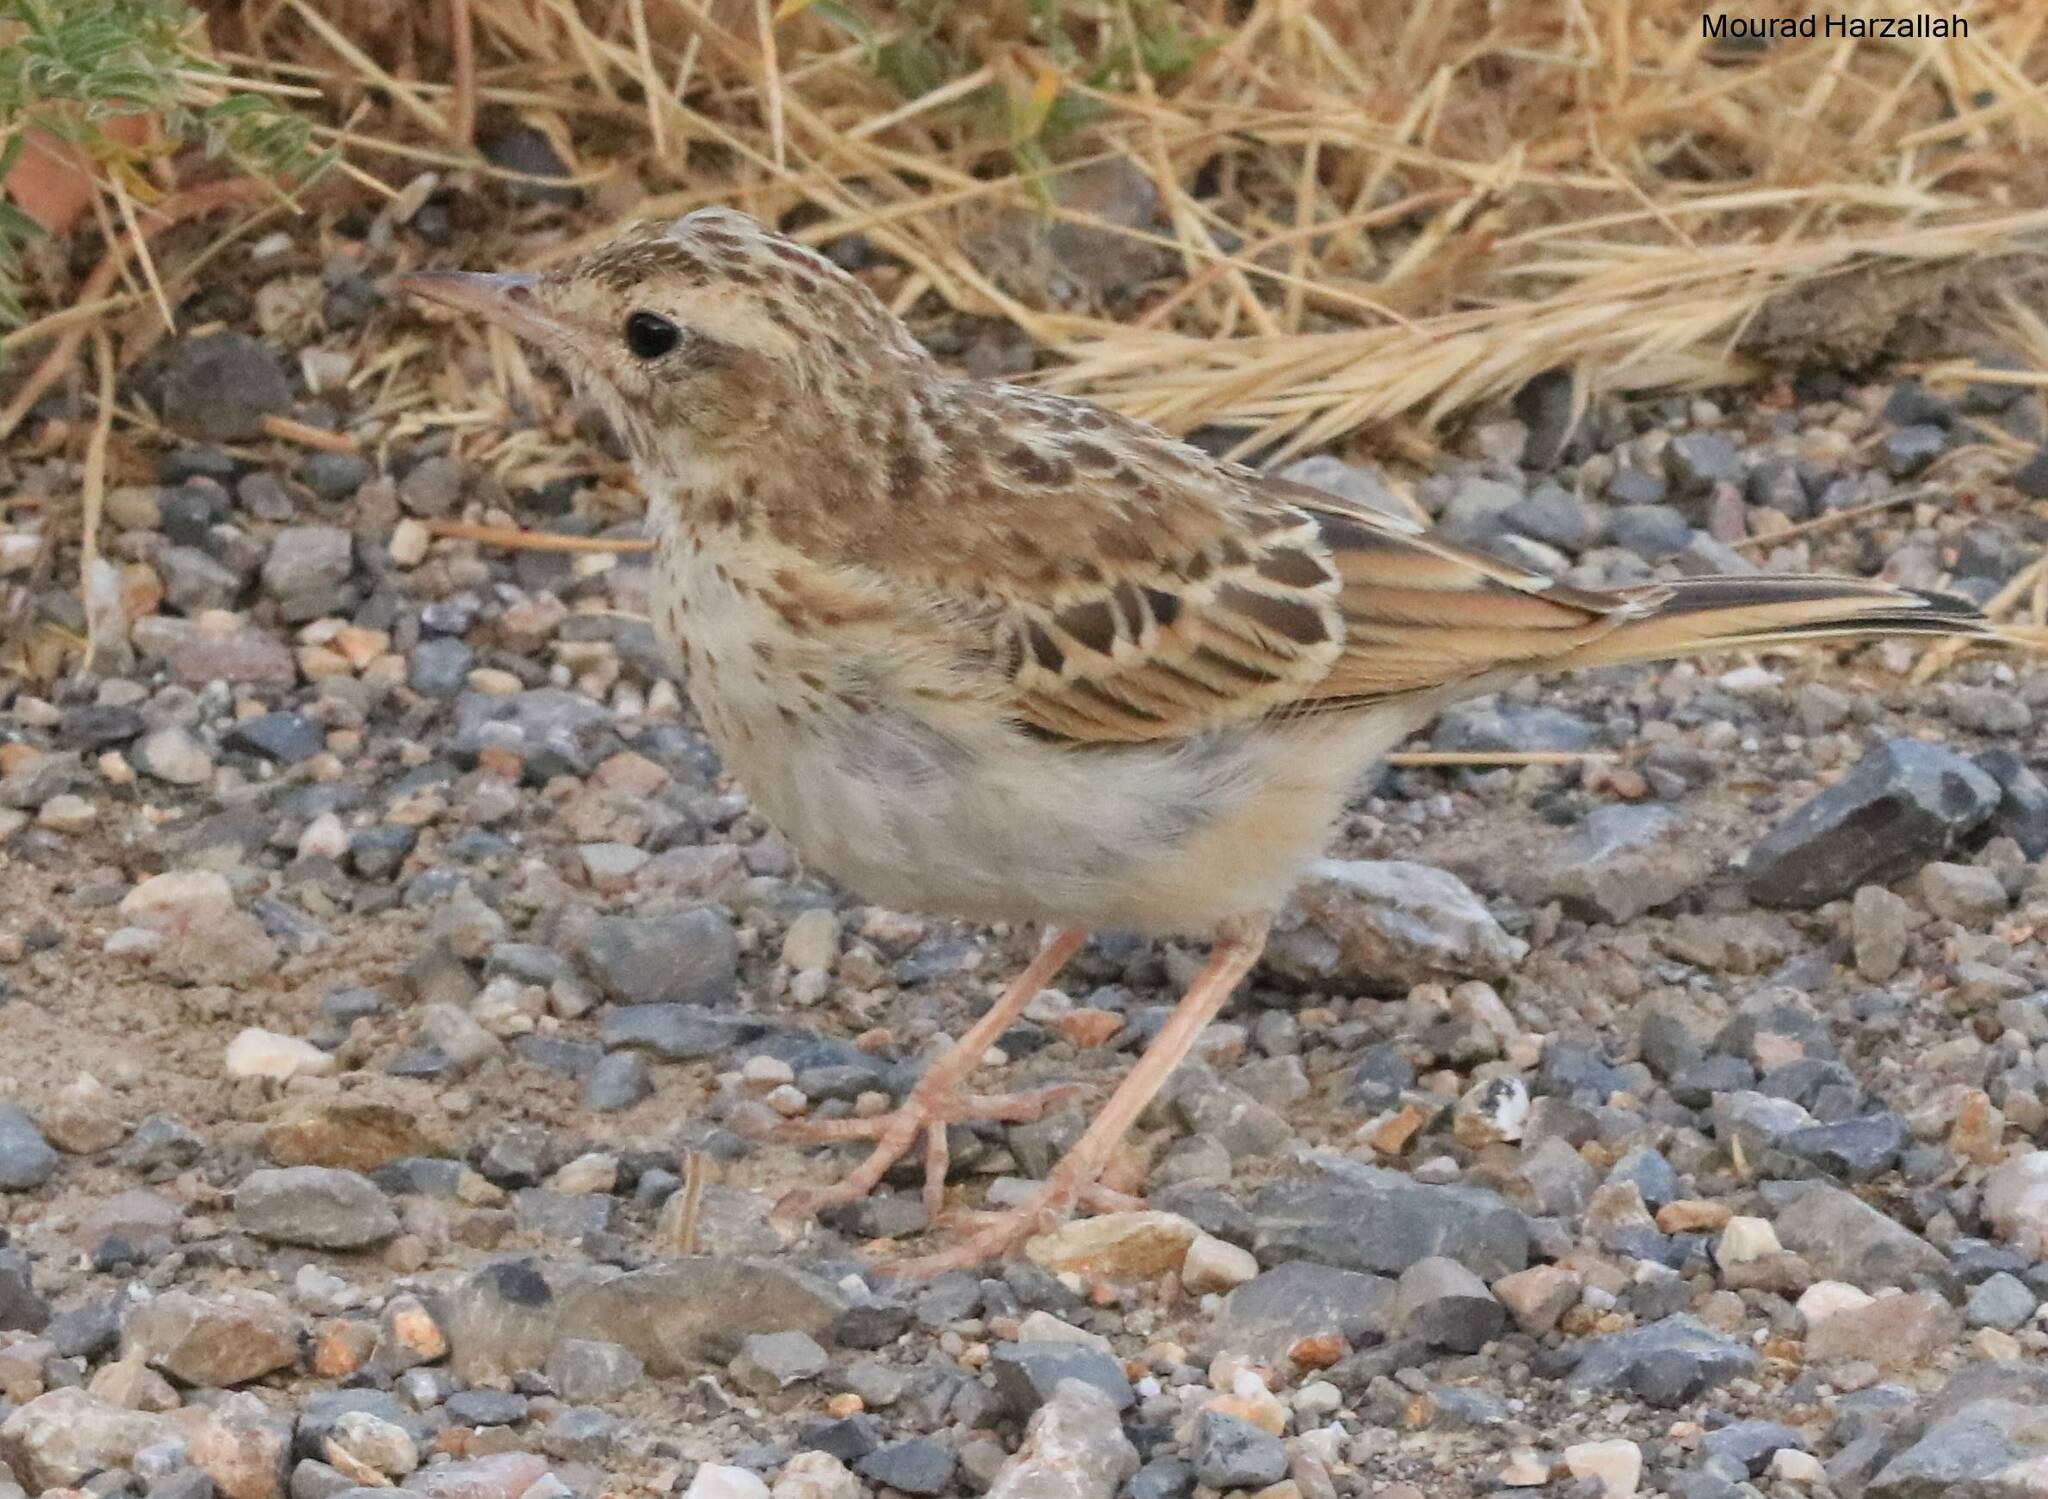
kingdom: Animalia
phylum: Chordata
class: Aves
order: Passeriformes
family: Motacillidae
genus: Anthus
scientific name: Anthus campestris
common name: Tawny pipit
